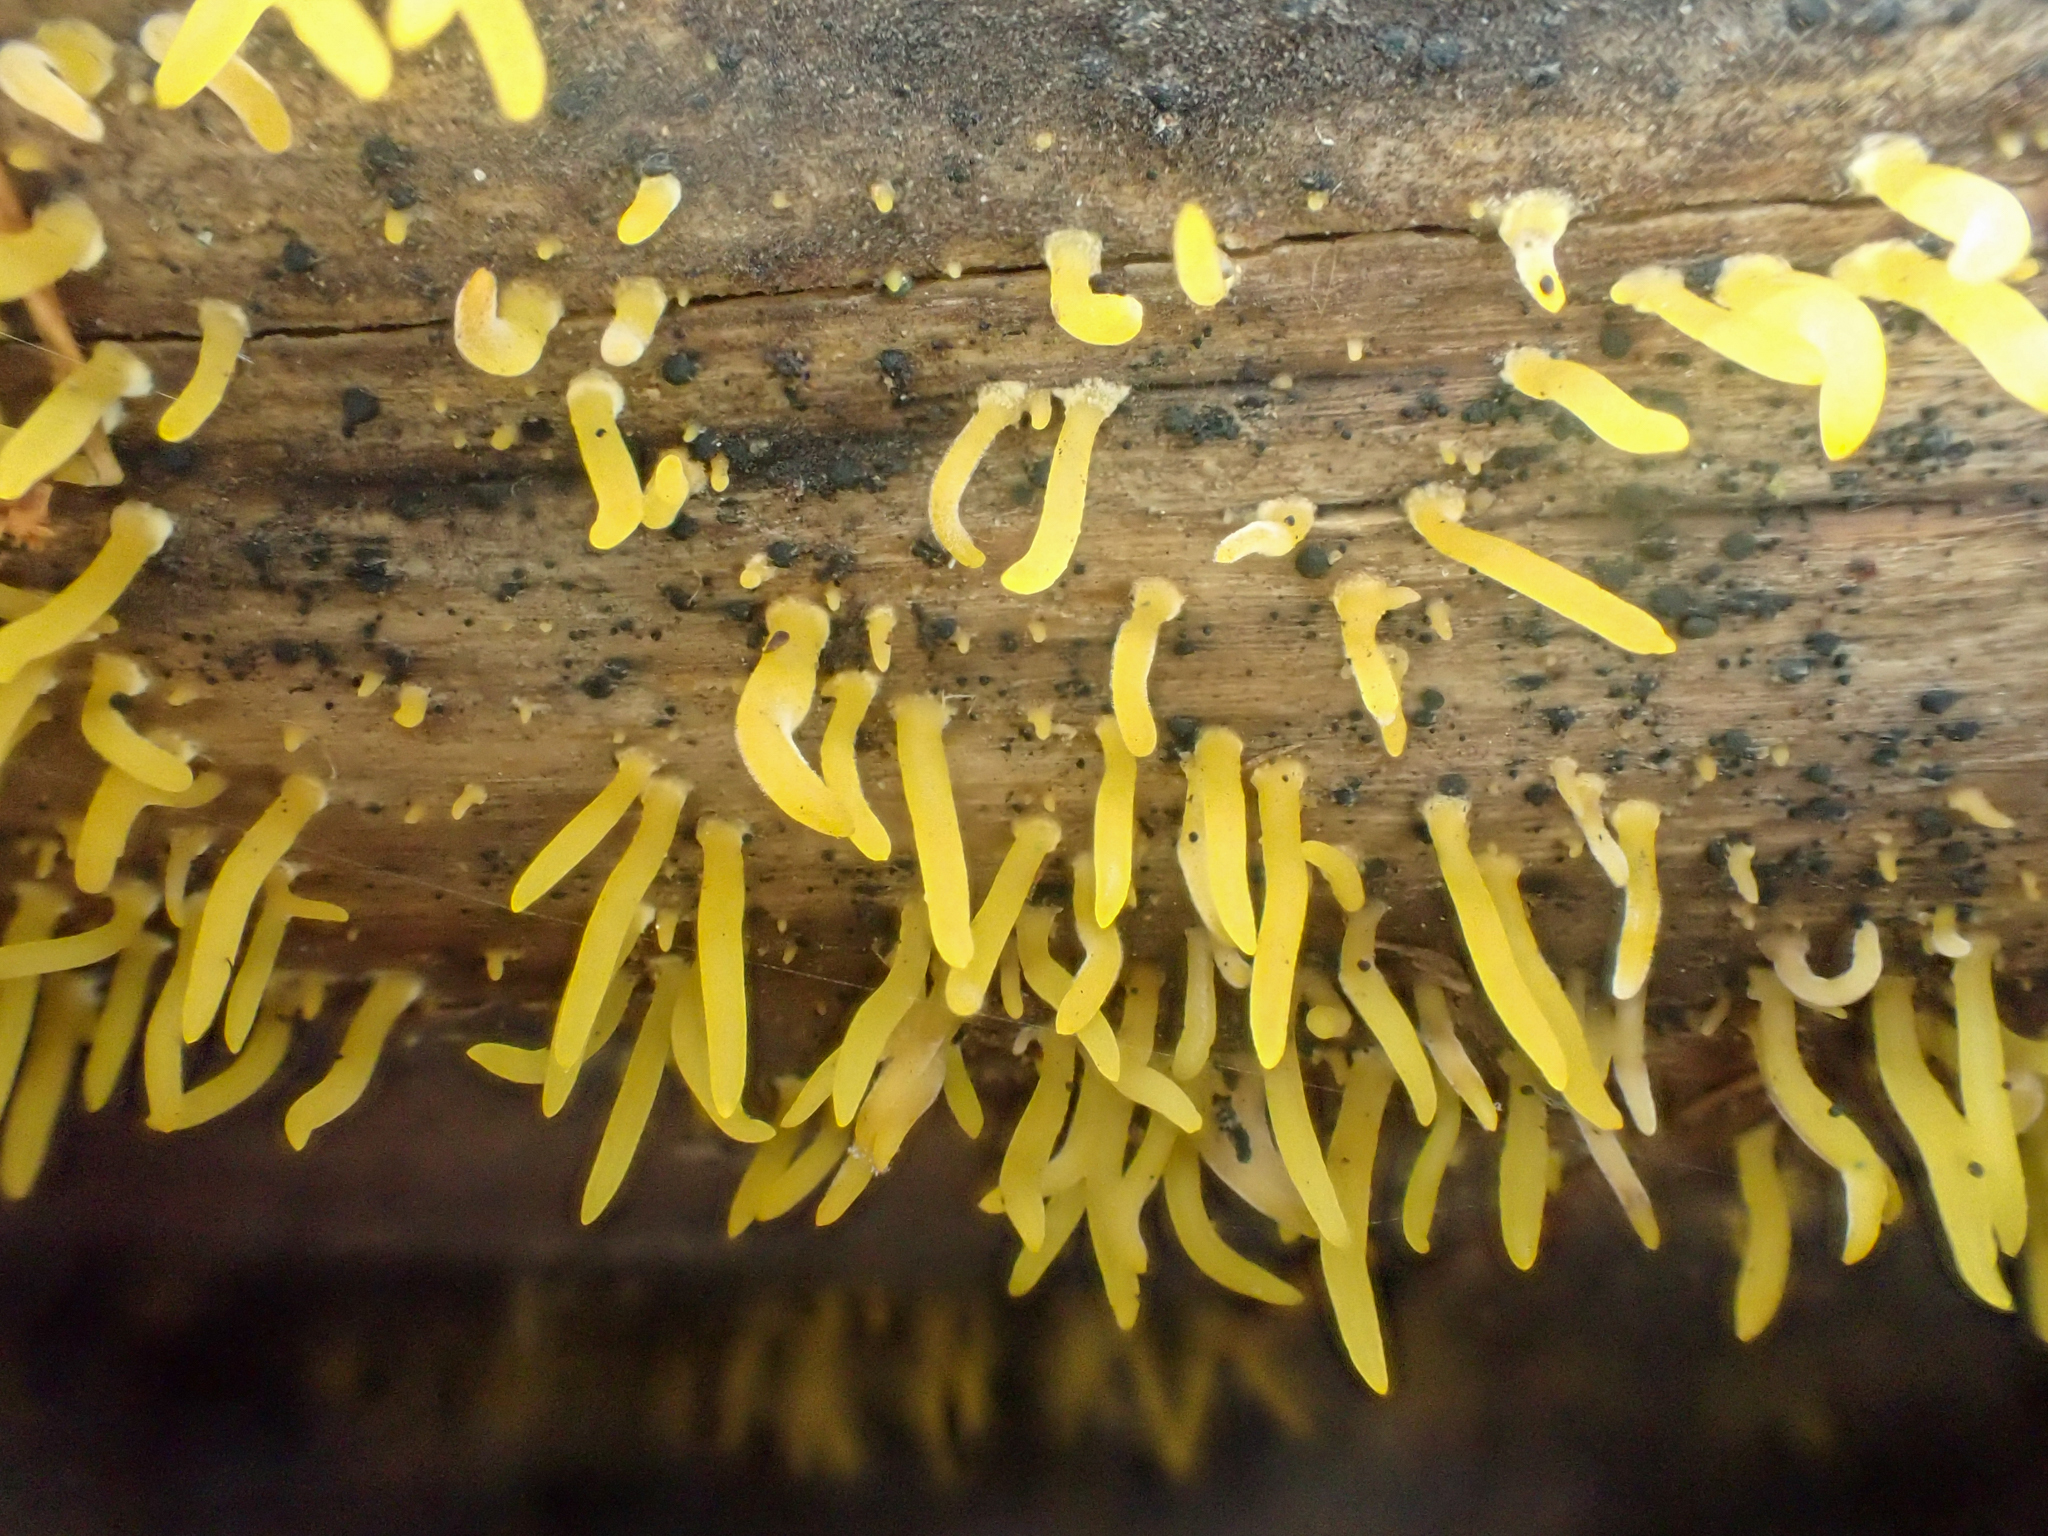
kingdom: Fungi
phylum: Basidiomycota
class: Dacrymycetes
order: Dacrymycetales
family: Dacrymycetaceae
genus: Calocera
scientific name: Calocera cornea
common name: Small stagshorn
